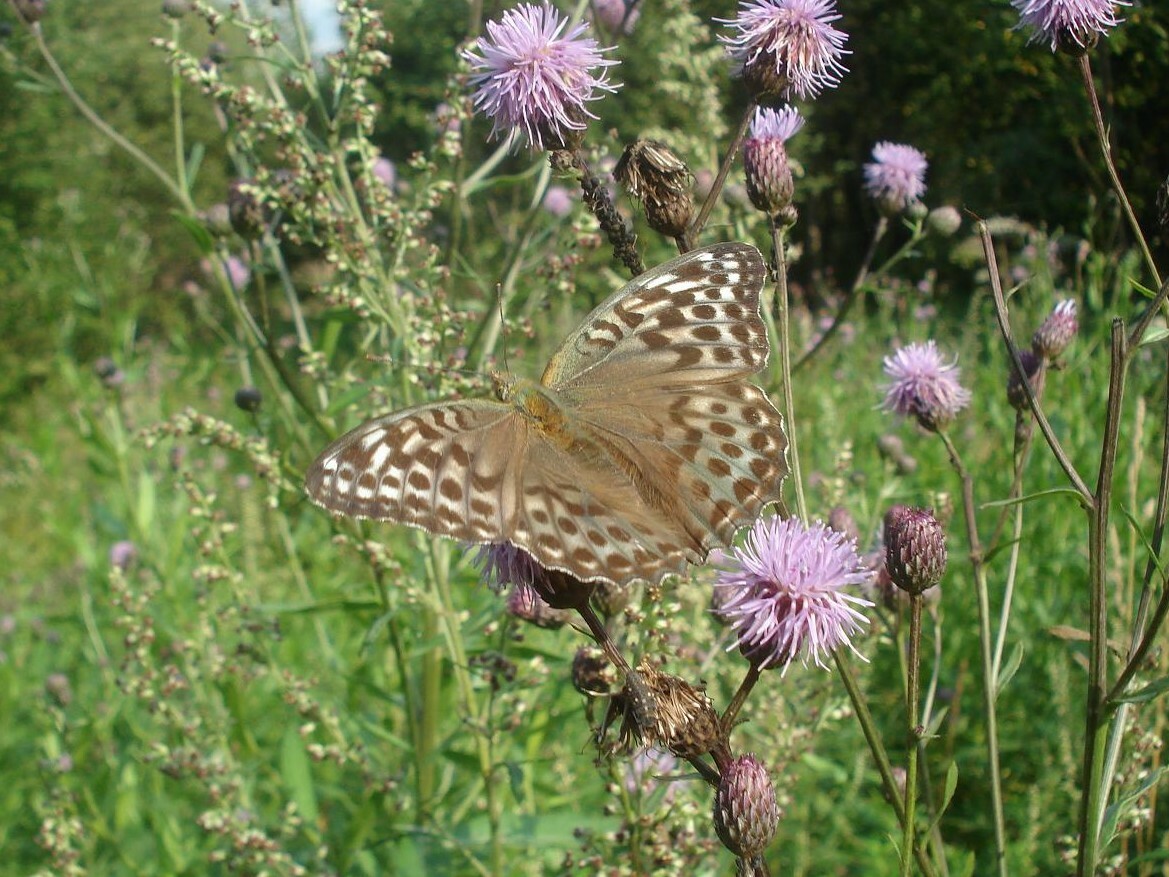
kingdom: Animalia
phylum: Arthropoda
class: Insecta
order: Lepidoptera
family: Nymphalidae
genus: Argynnis
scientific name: Argynnis paphia
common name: Silver-washed fritillary
